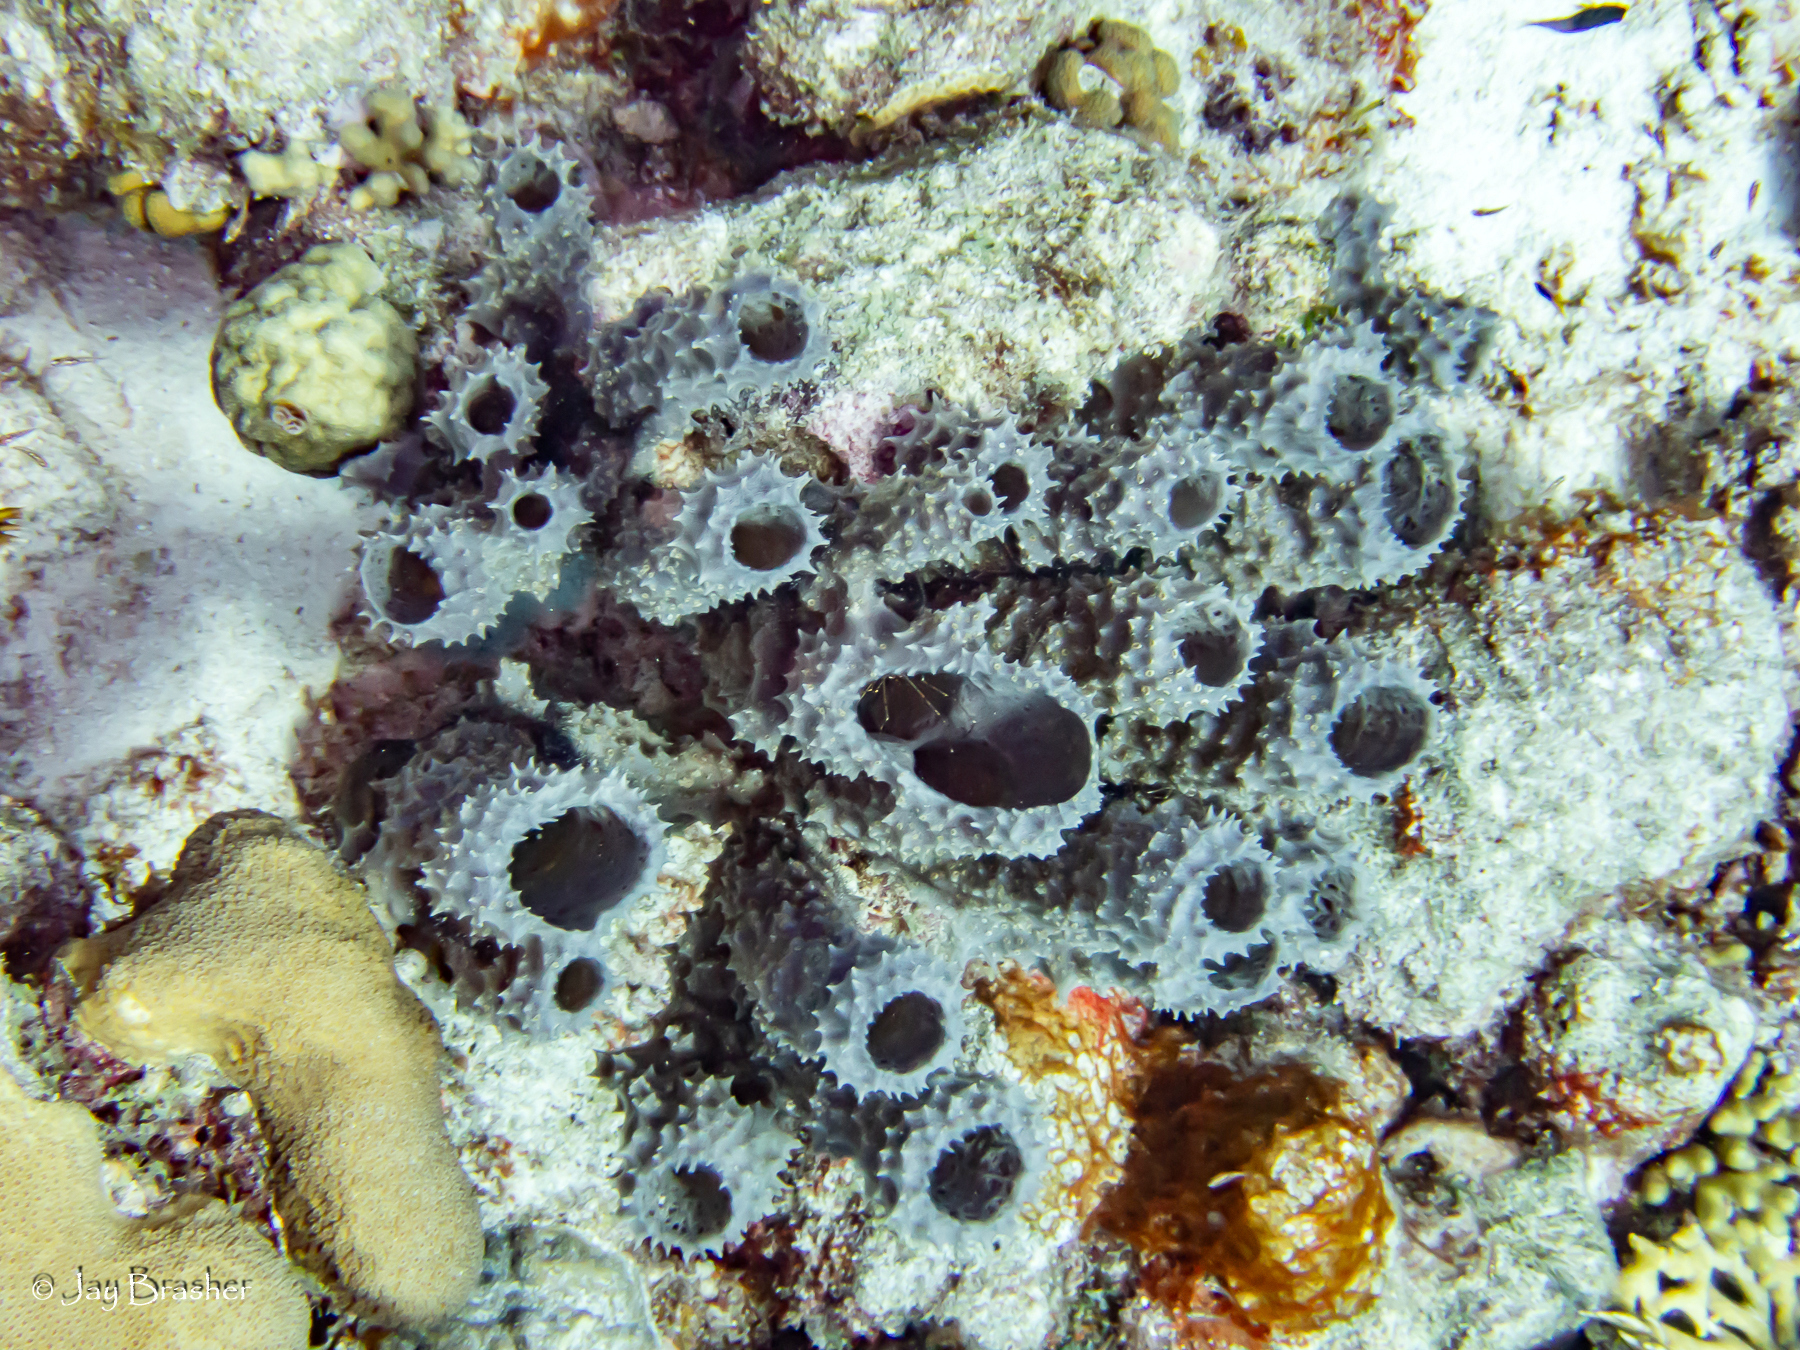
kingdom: Animalia
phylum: Porifera
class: Demospongiae
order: Haplosclerida
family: Callyspongiidae
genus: Callyspongia
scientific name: Callyspongia aculeata
